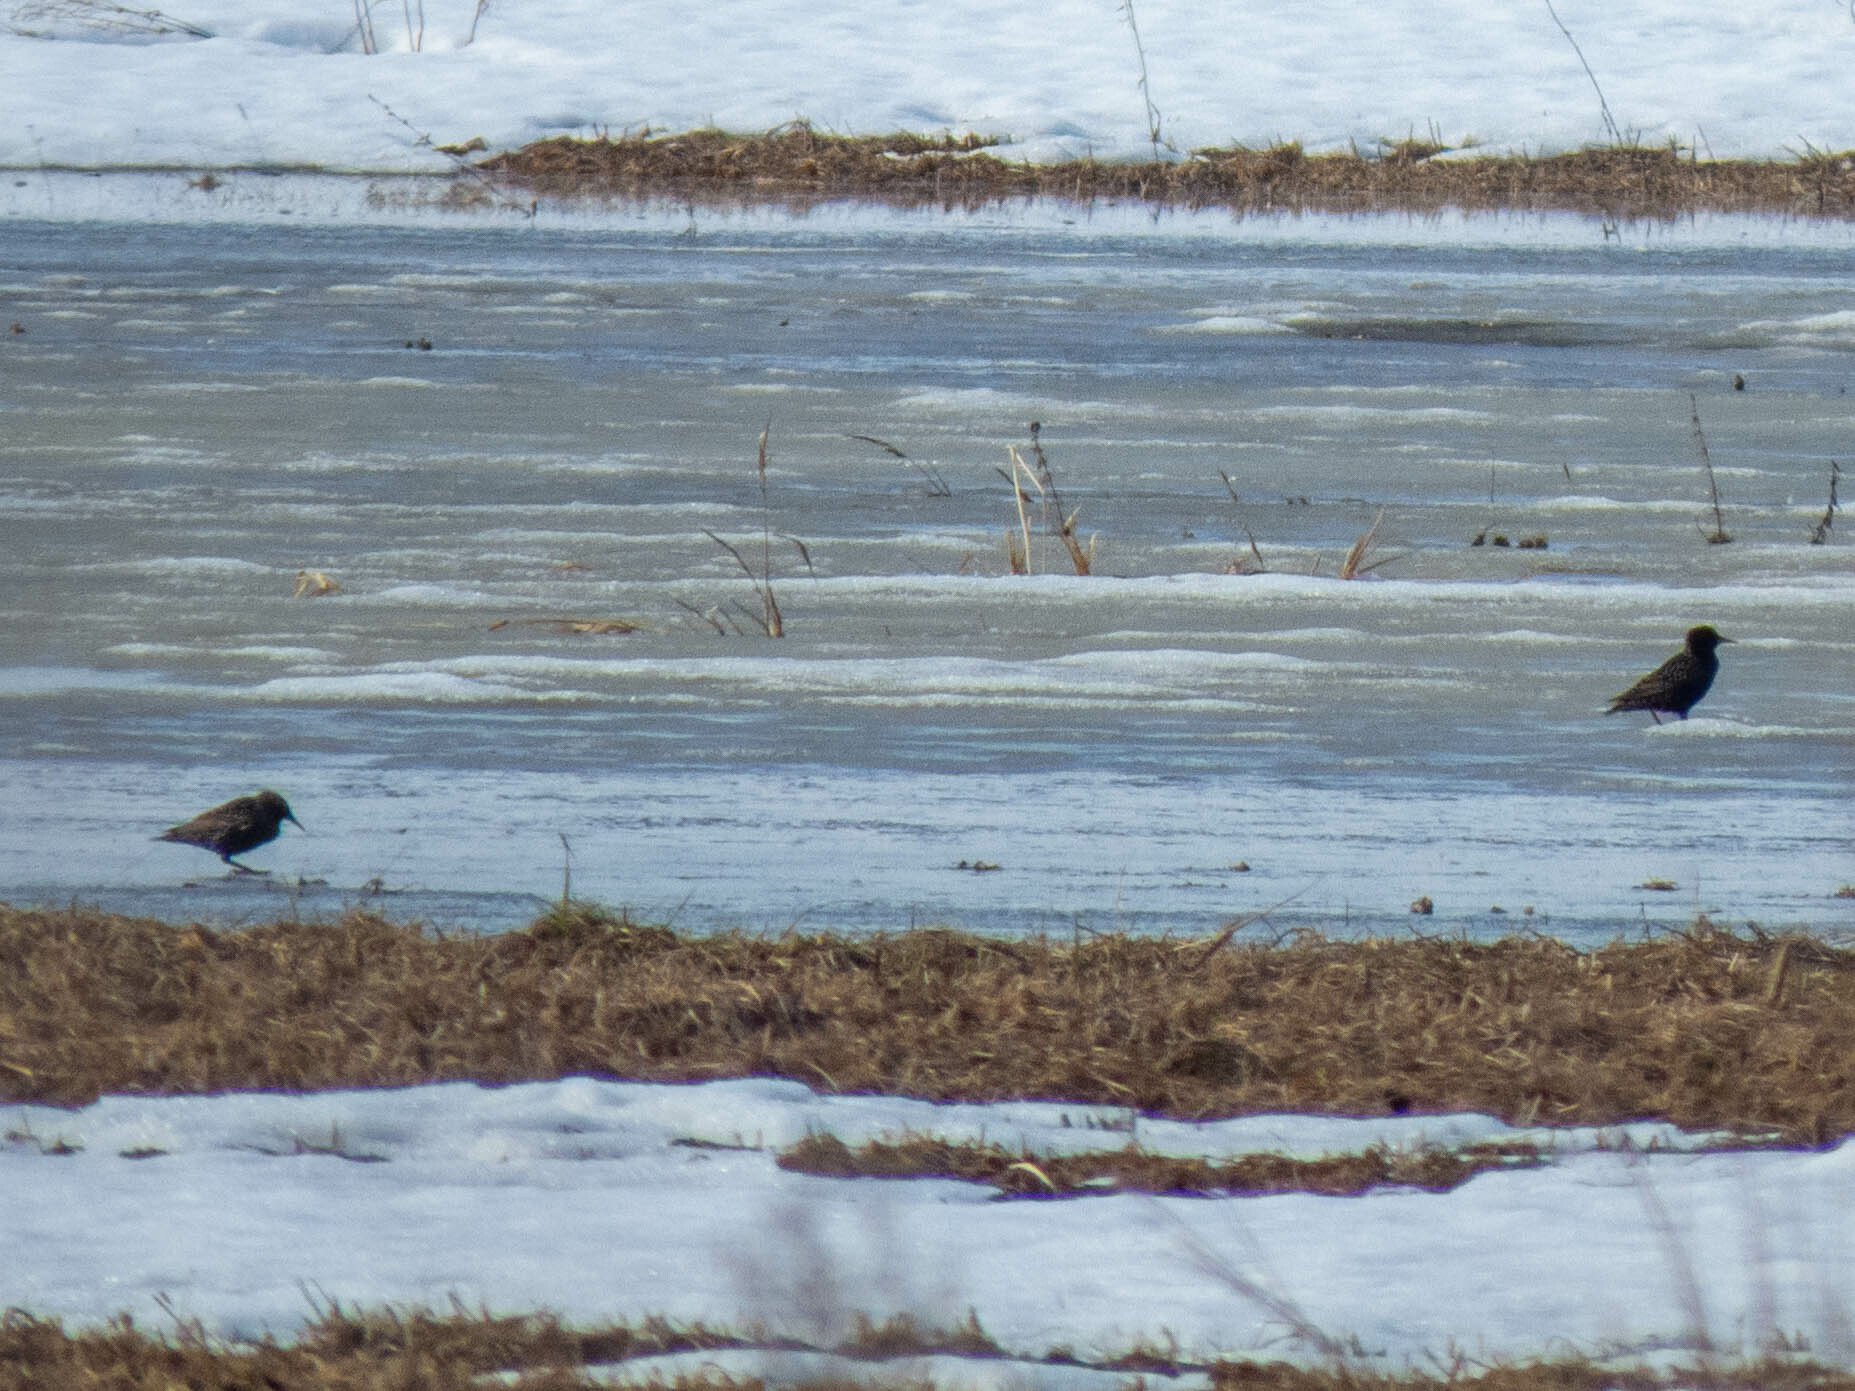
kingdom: Animalia
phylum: Chordata
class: Aves
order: Passeriformes
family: Sturnidae
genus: Sturnus
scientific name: Sturnus vulgaris
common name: Common starling
